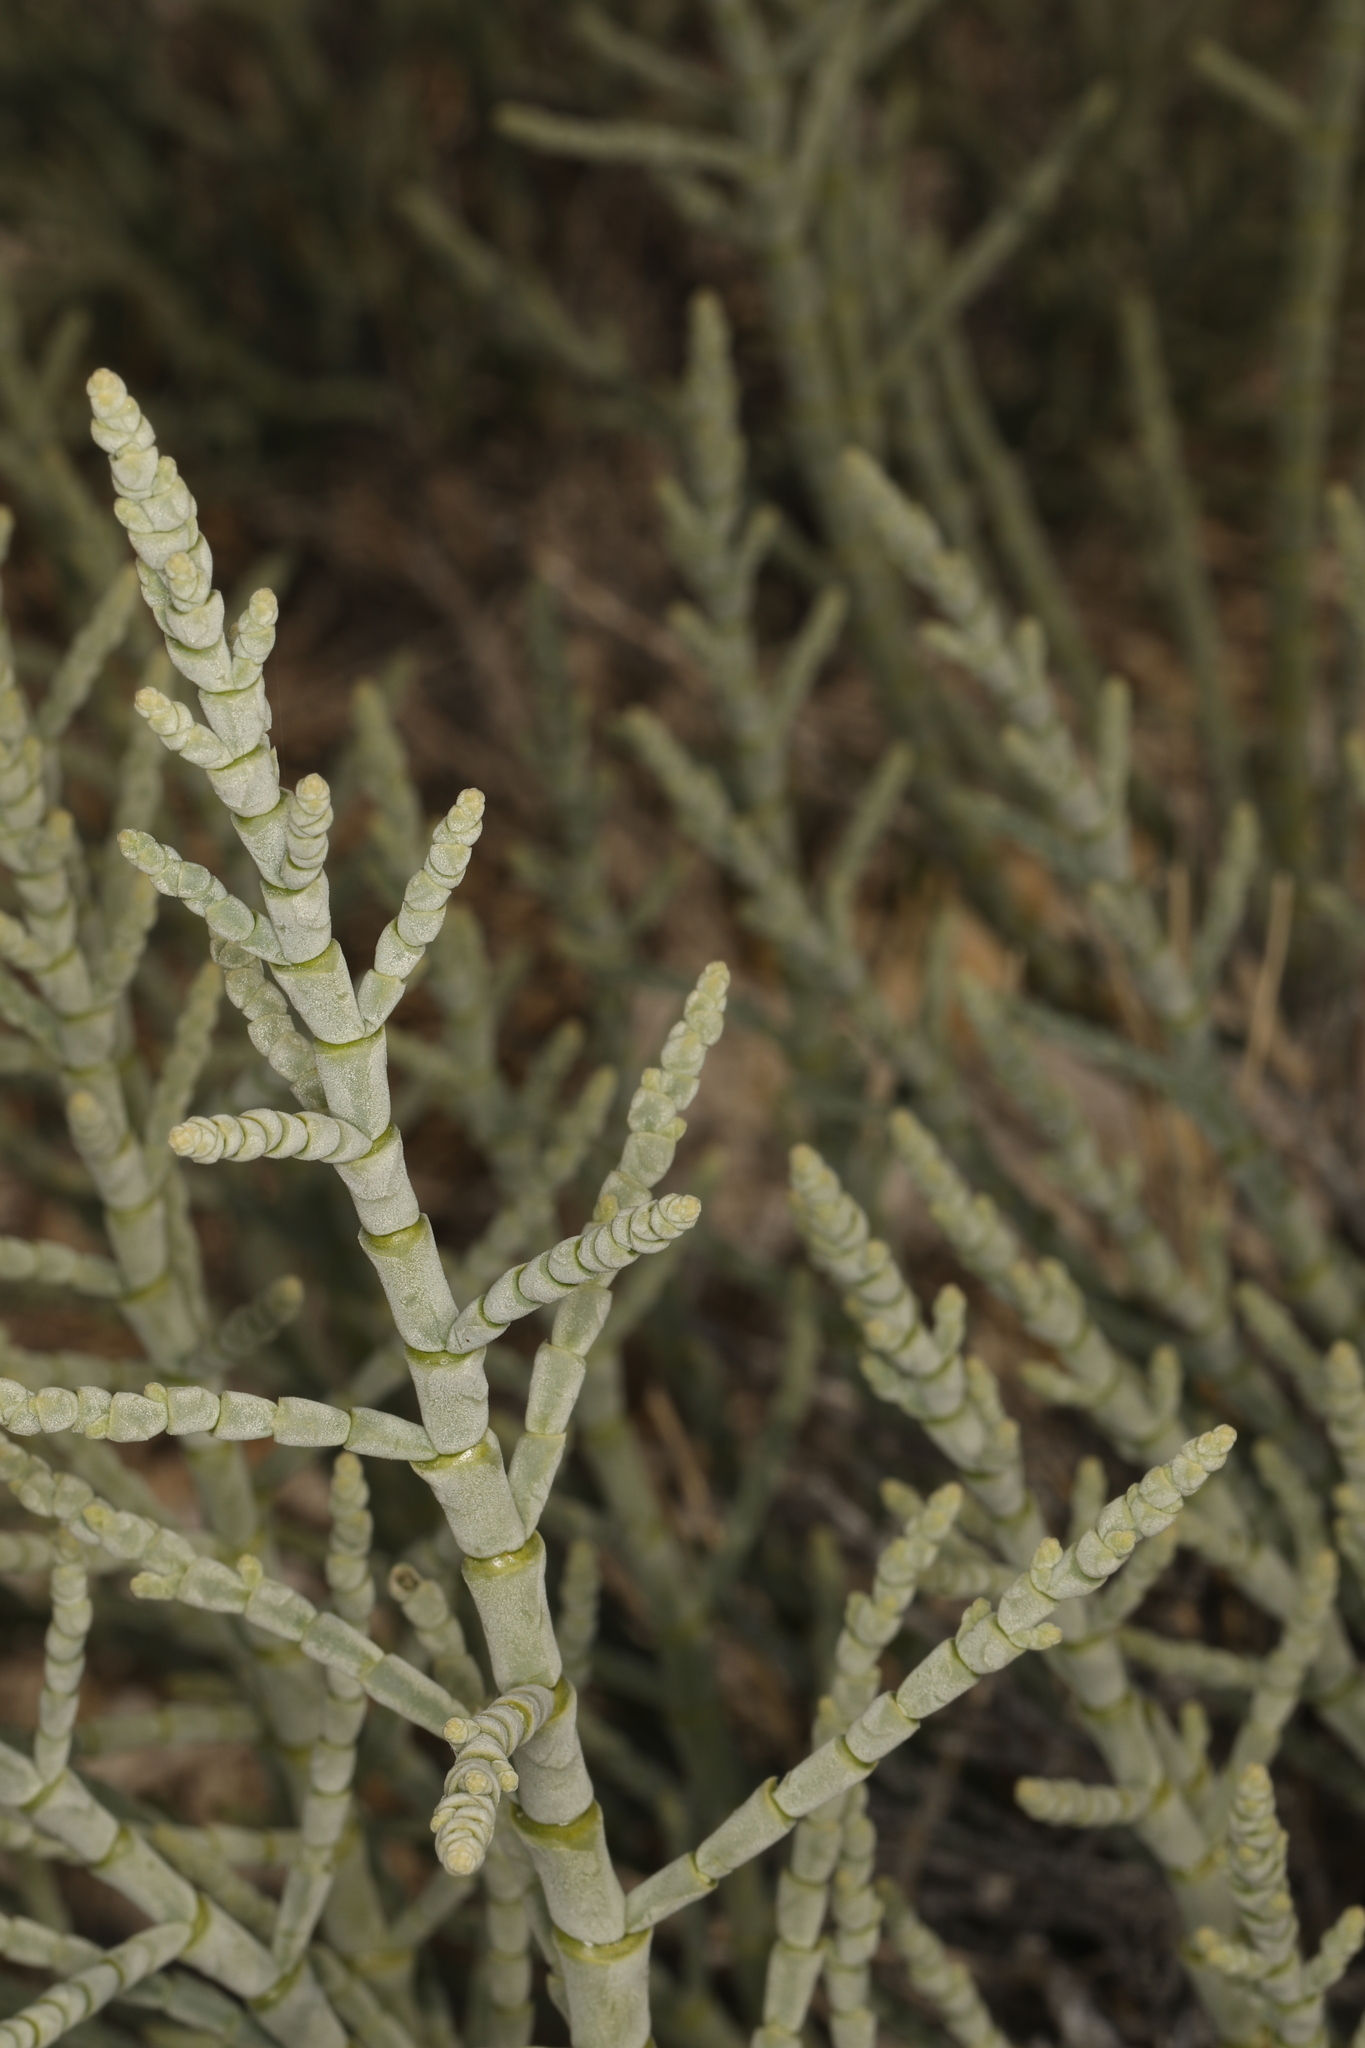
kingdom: Plantae
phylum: Tracheophyta
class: Magnoliopsida
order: Caryophyllales
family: Amaranthaceae
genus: Allenrolfea
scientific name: Allenrolfea occidentalis
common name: Iodine-bush
